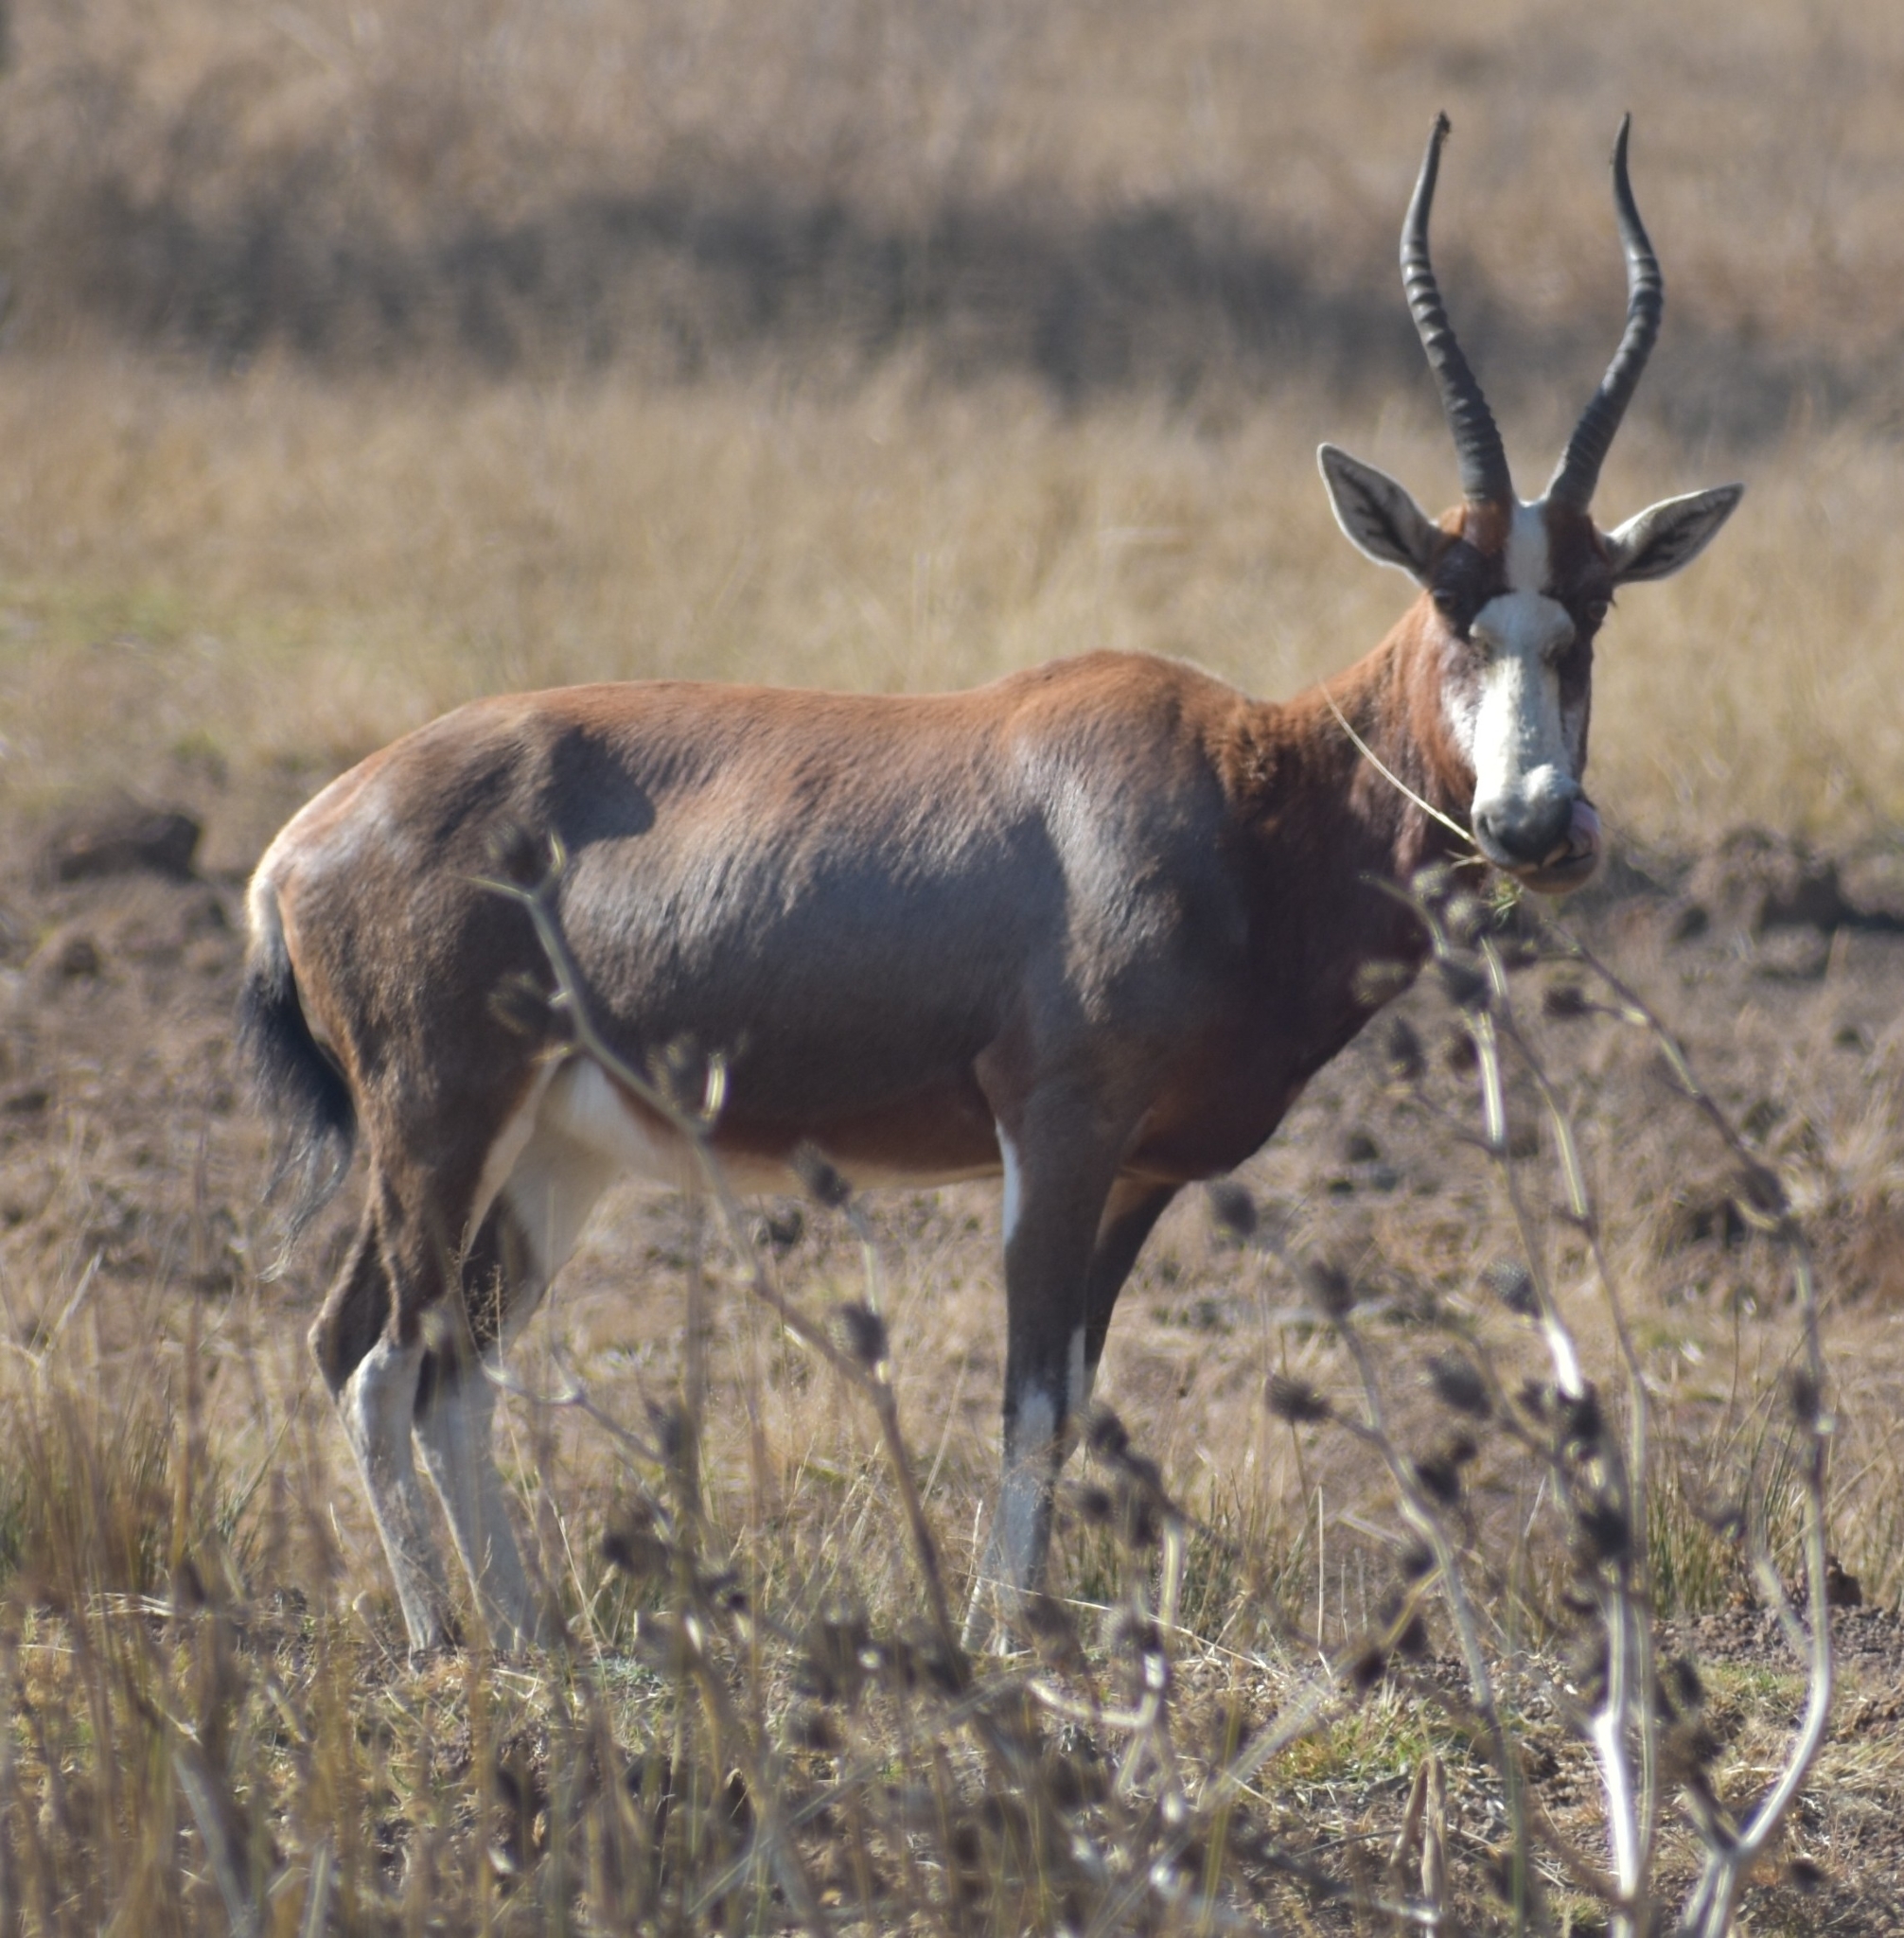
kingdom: Animalia
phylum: Chordata
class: Mammalia
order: Artiodactyla
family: Bovidae
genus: Damaliscus
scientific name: Damaliscus pygargus
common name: Bontebok
